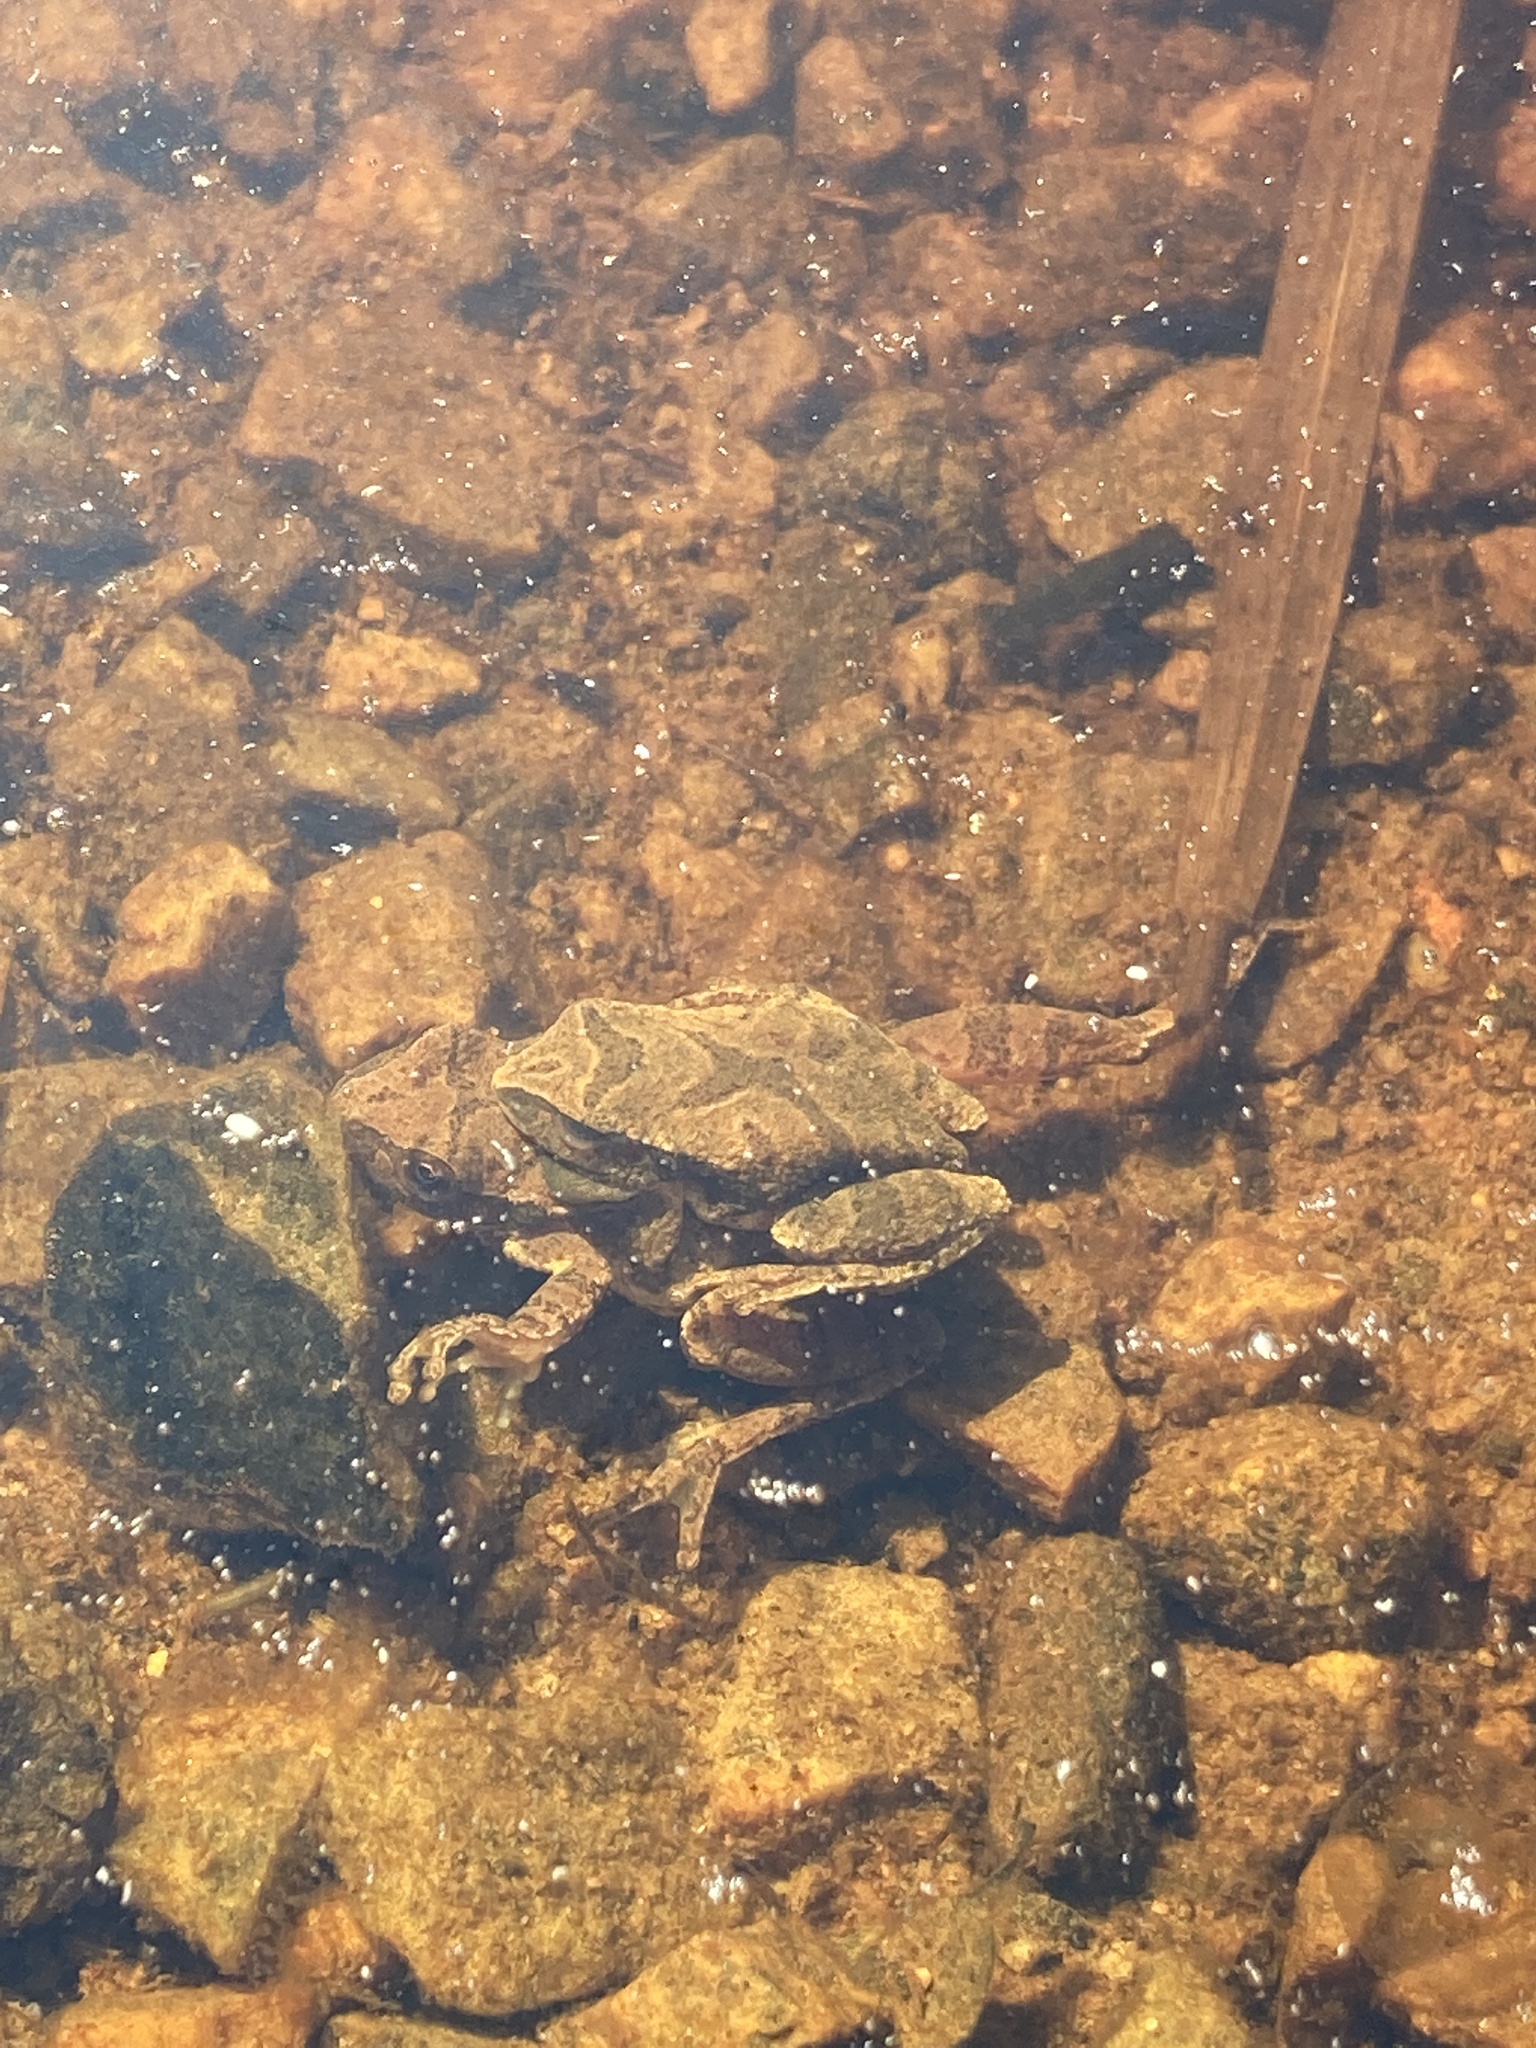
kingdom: Animalia
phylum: Chordata
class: Amphibia
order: Anura
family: Hylidae
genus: Pseudacris
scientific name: Pseudacris crucifer
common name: Spring peeper
